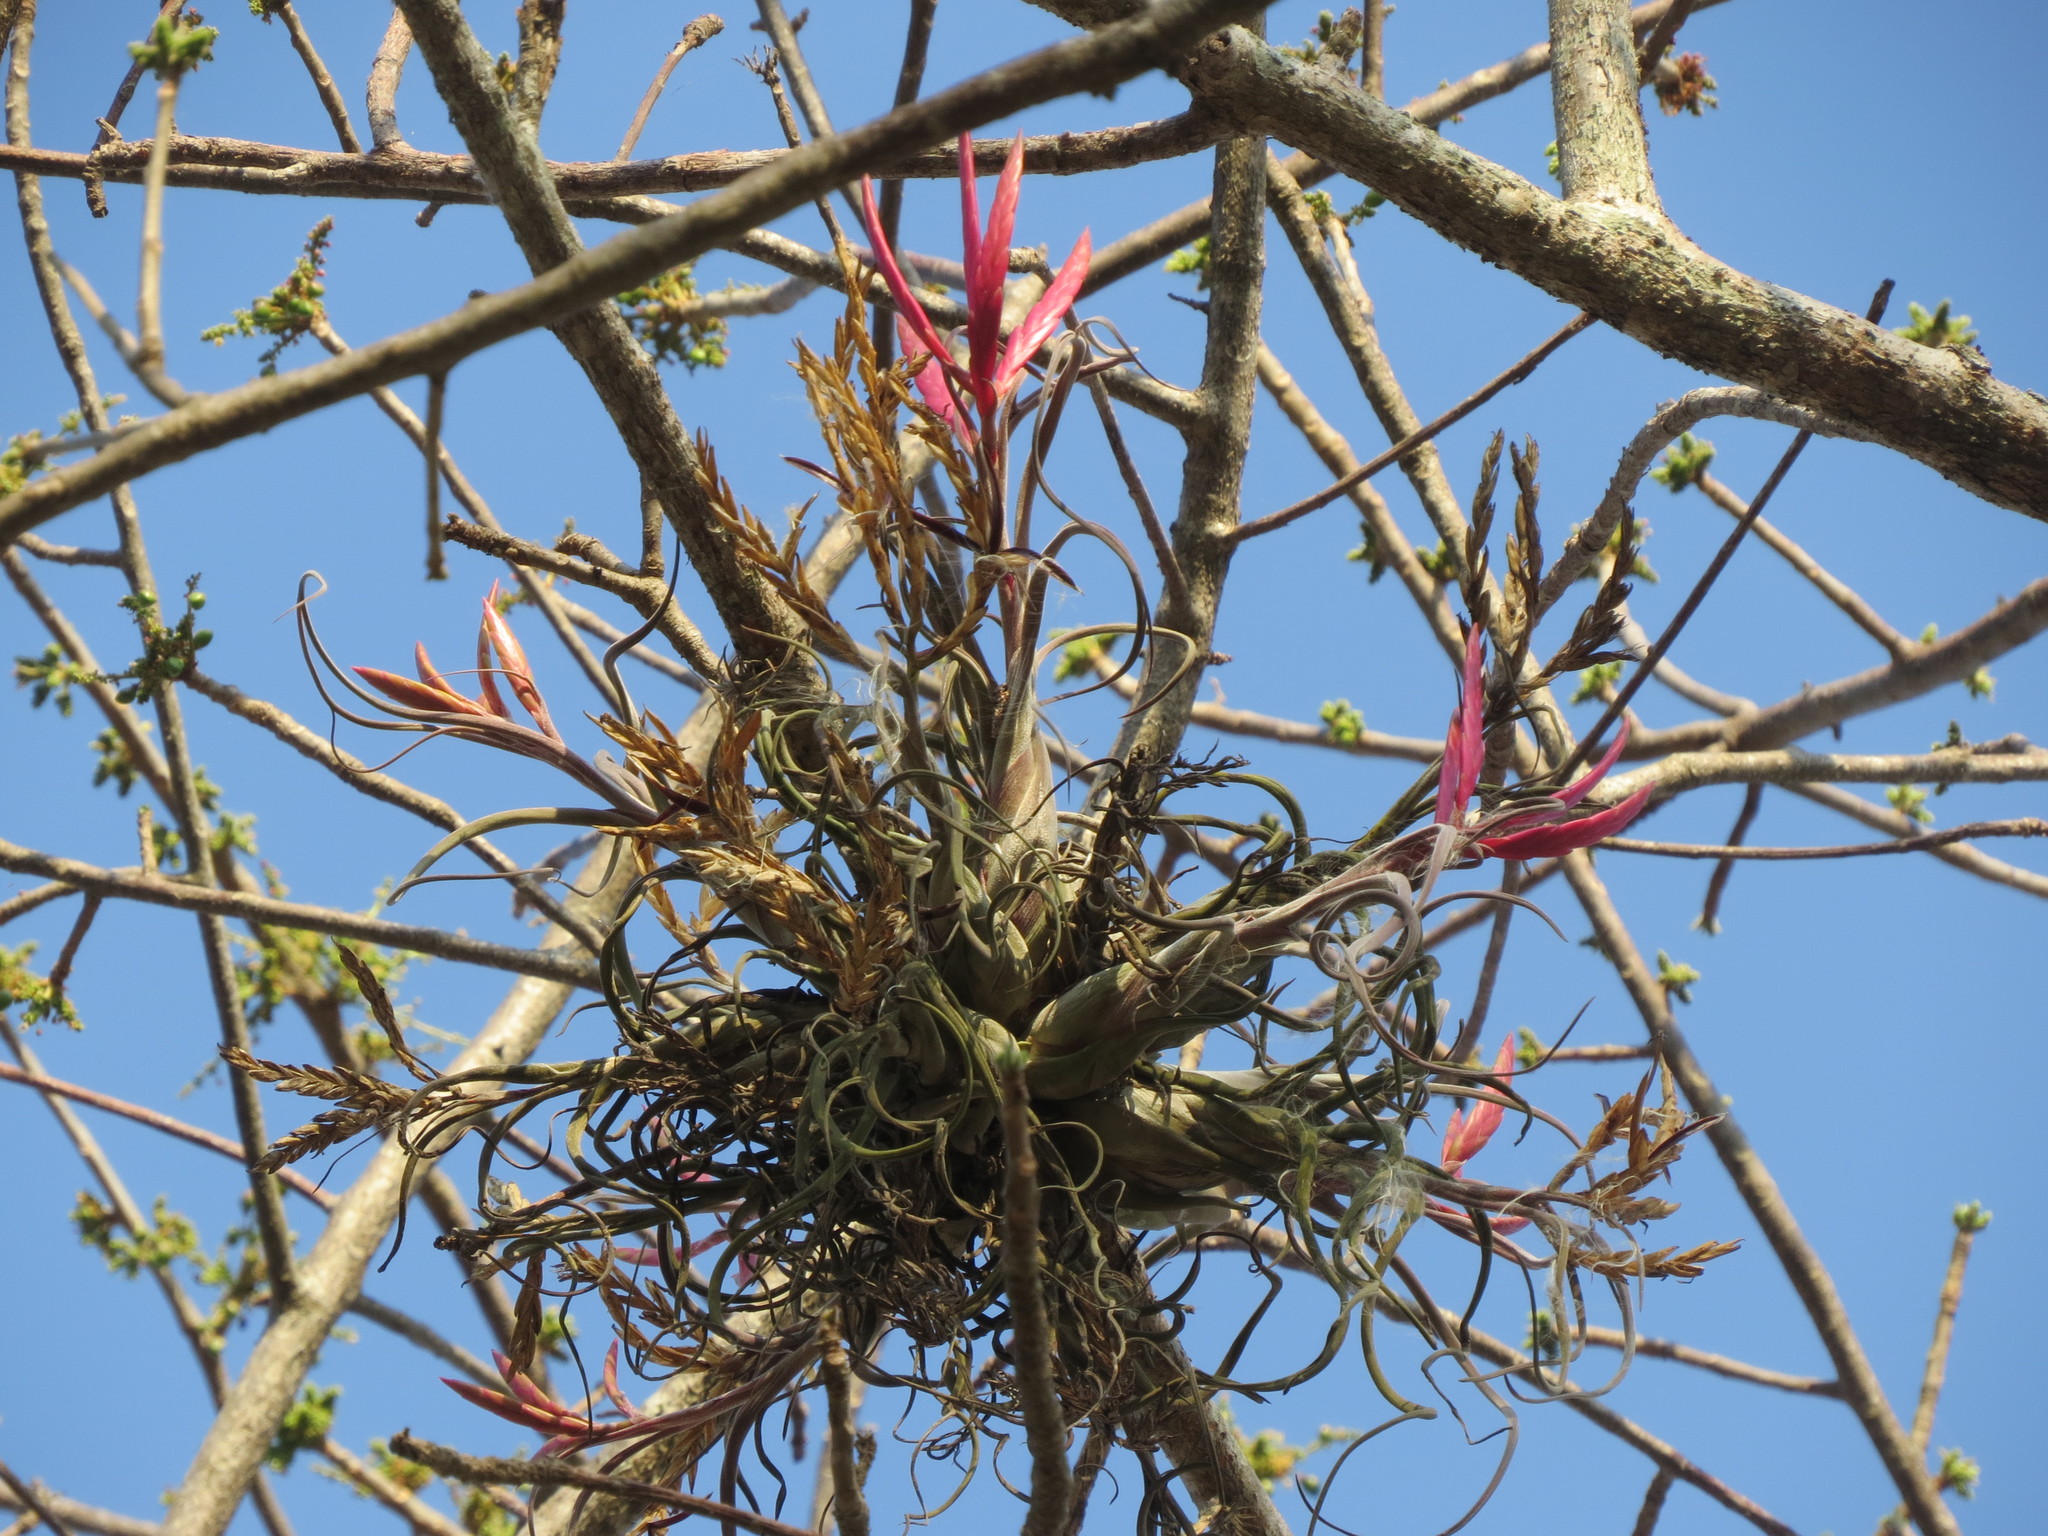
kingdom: Plantae
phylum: Tracheophyta
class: Liliopsida
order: Poales
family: Bromeliaceae
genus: Tillandsia
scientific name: Tillandsia caput-medusae
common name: Octopus plant
